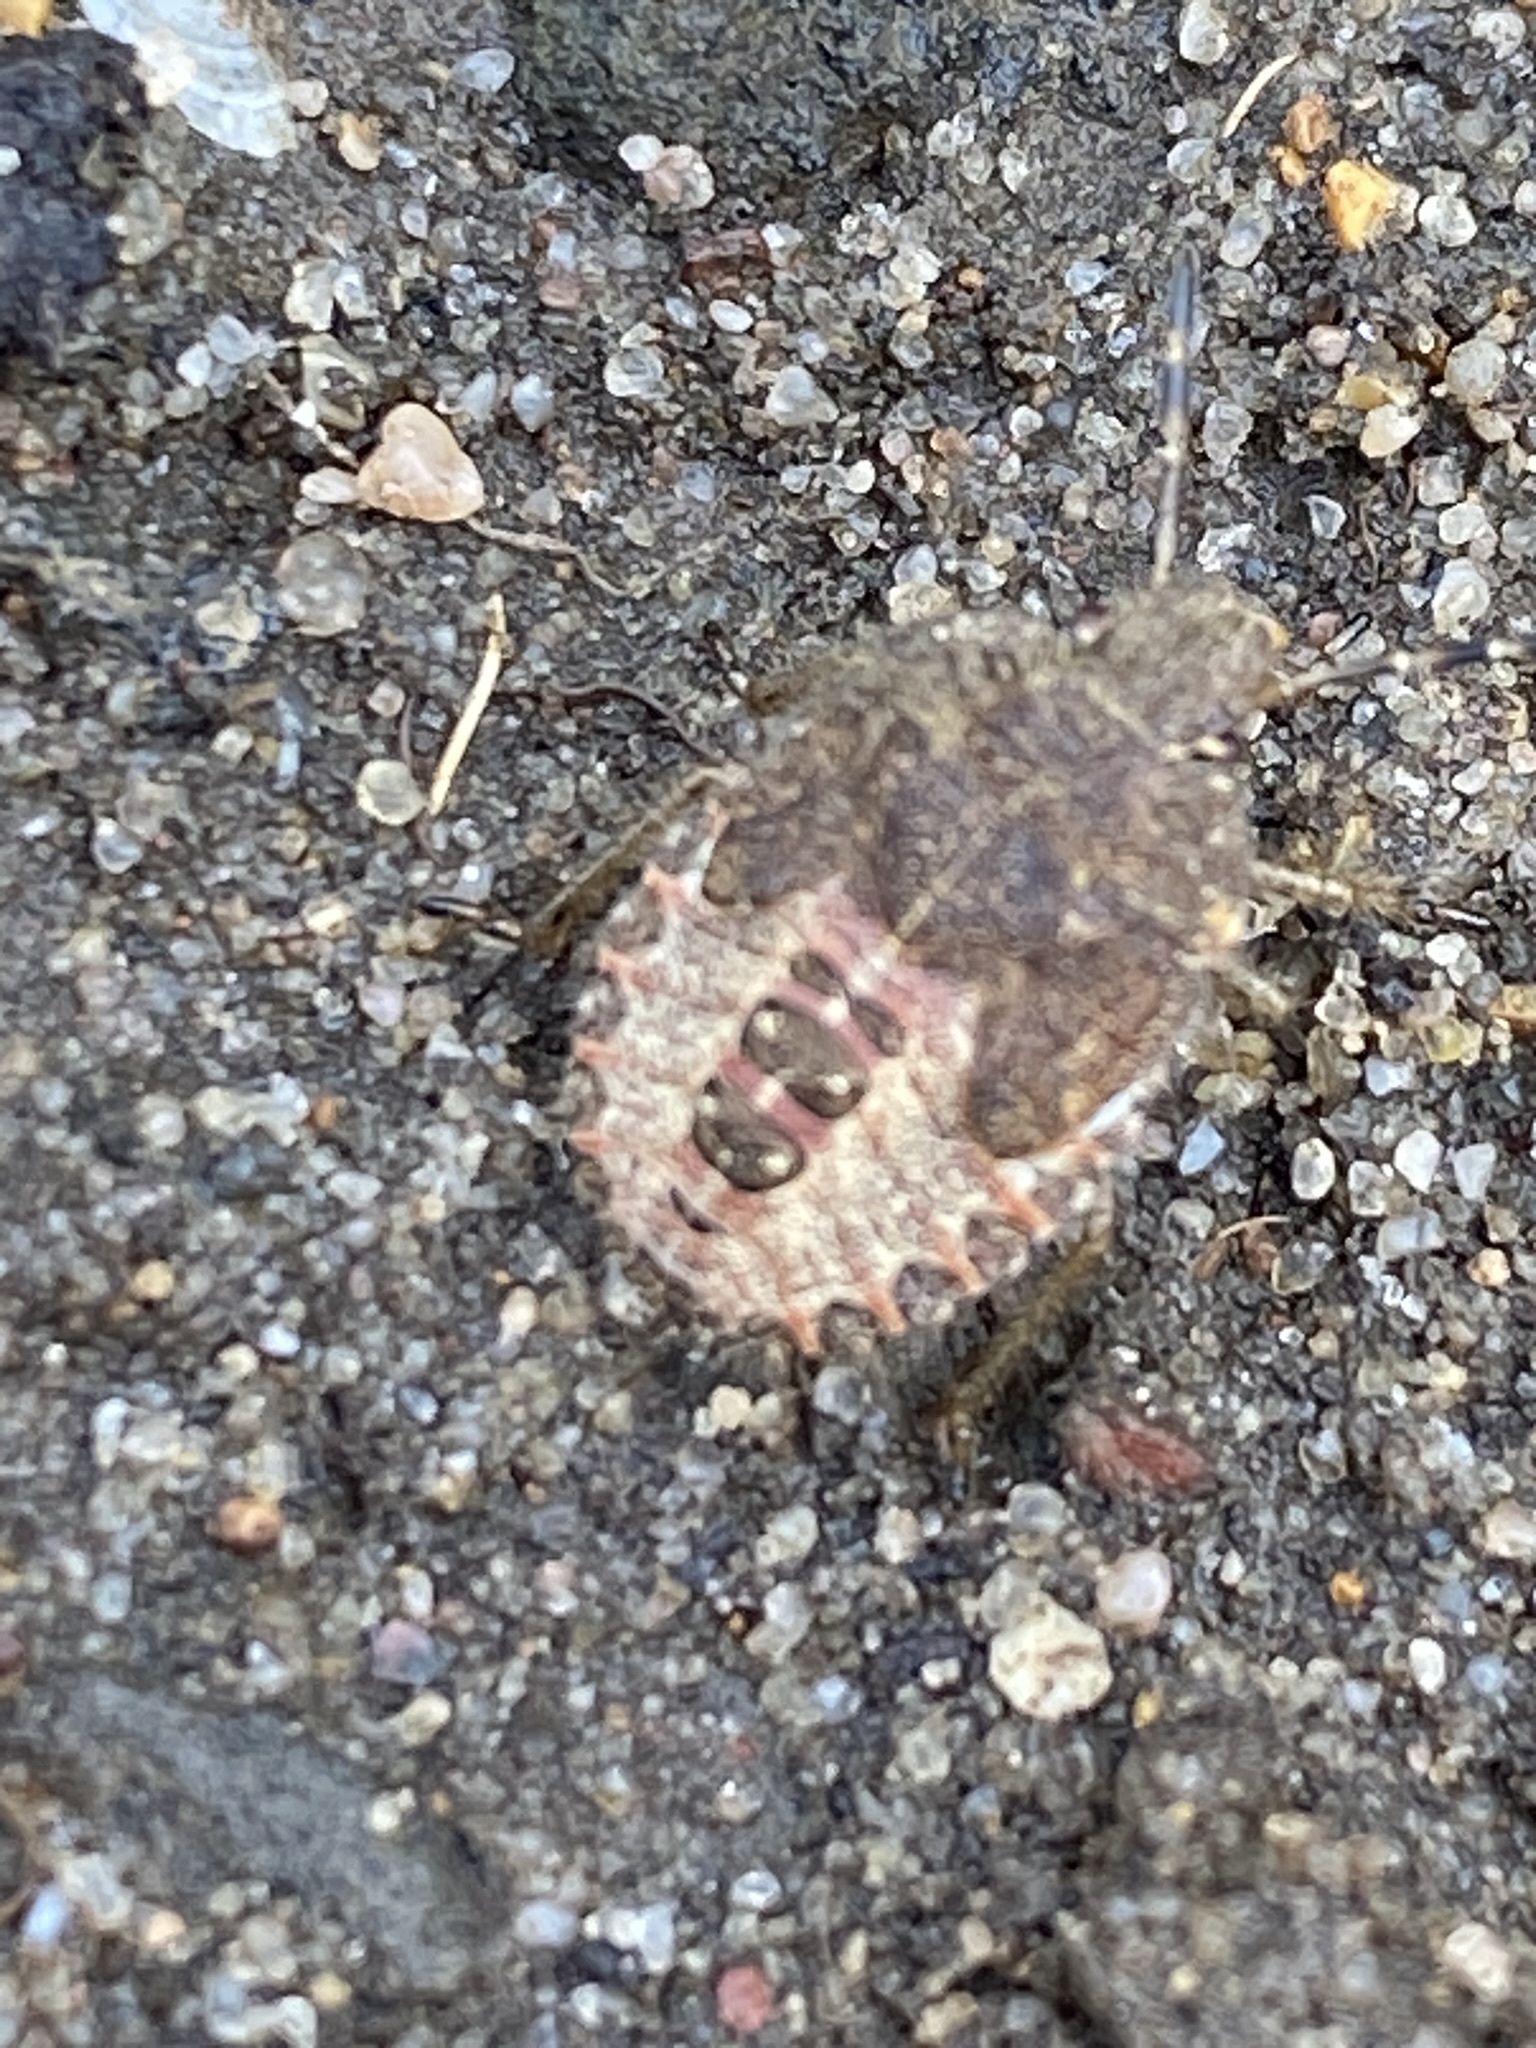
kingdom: Animalia
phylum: Arthropoda
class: Insecta
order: Hemiptera
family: Pentatomidae
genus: Dolycoris
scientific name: Dolycoris baccarum
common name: Sloe bug
